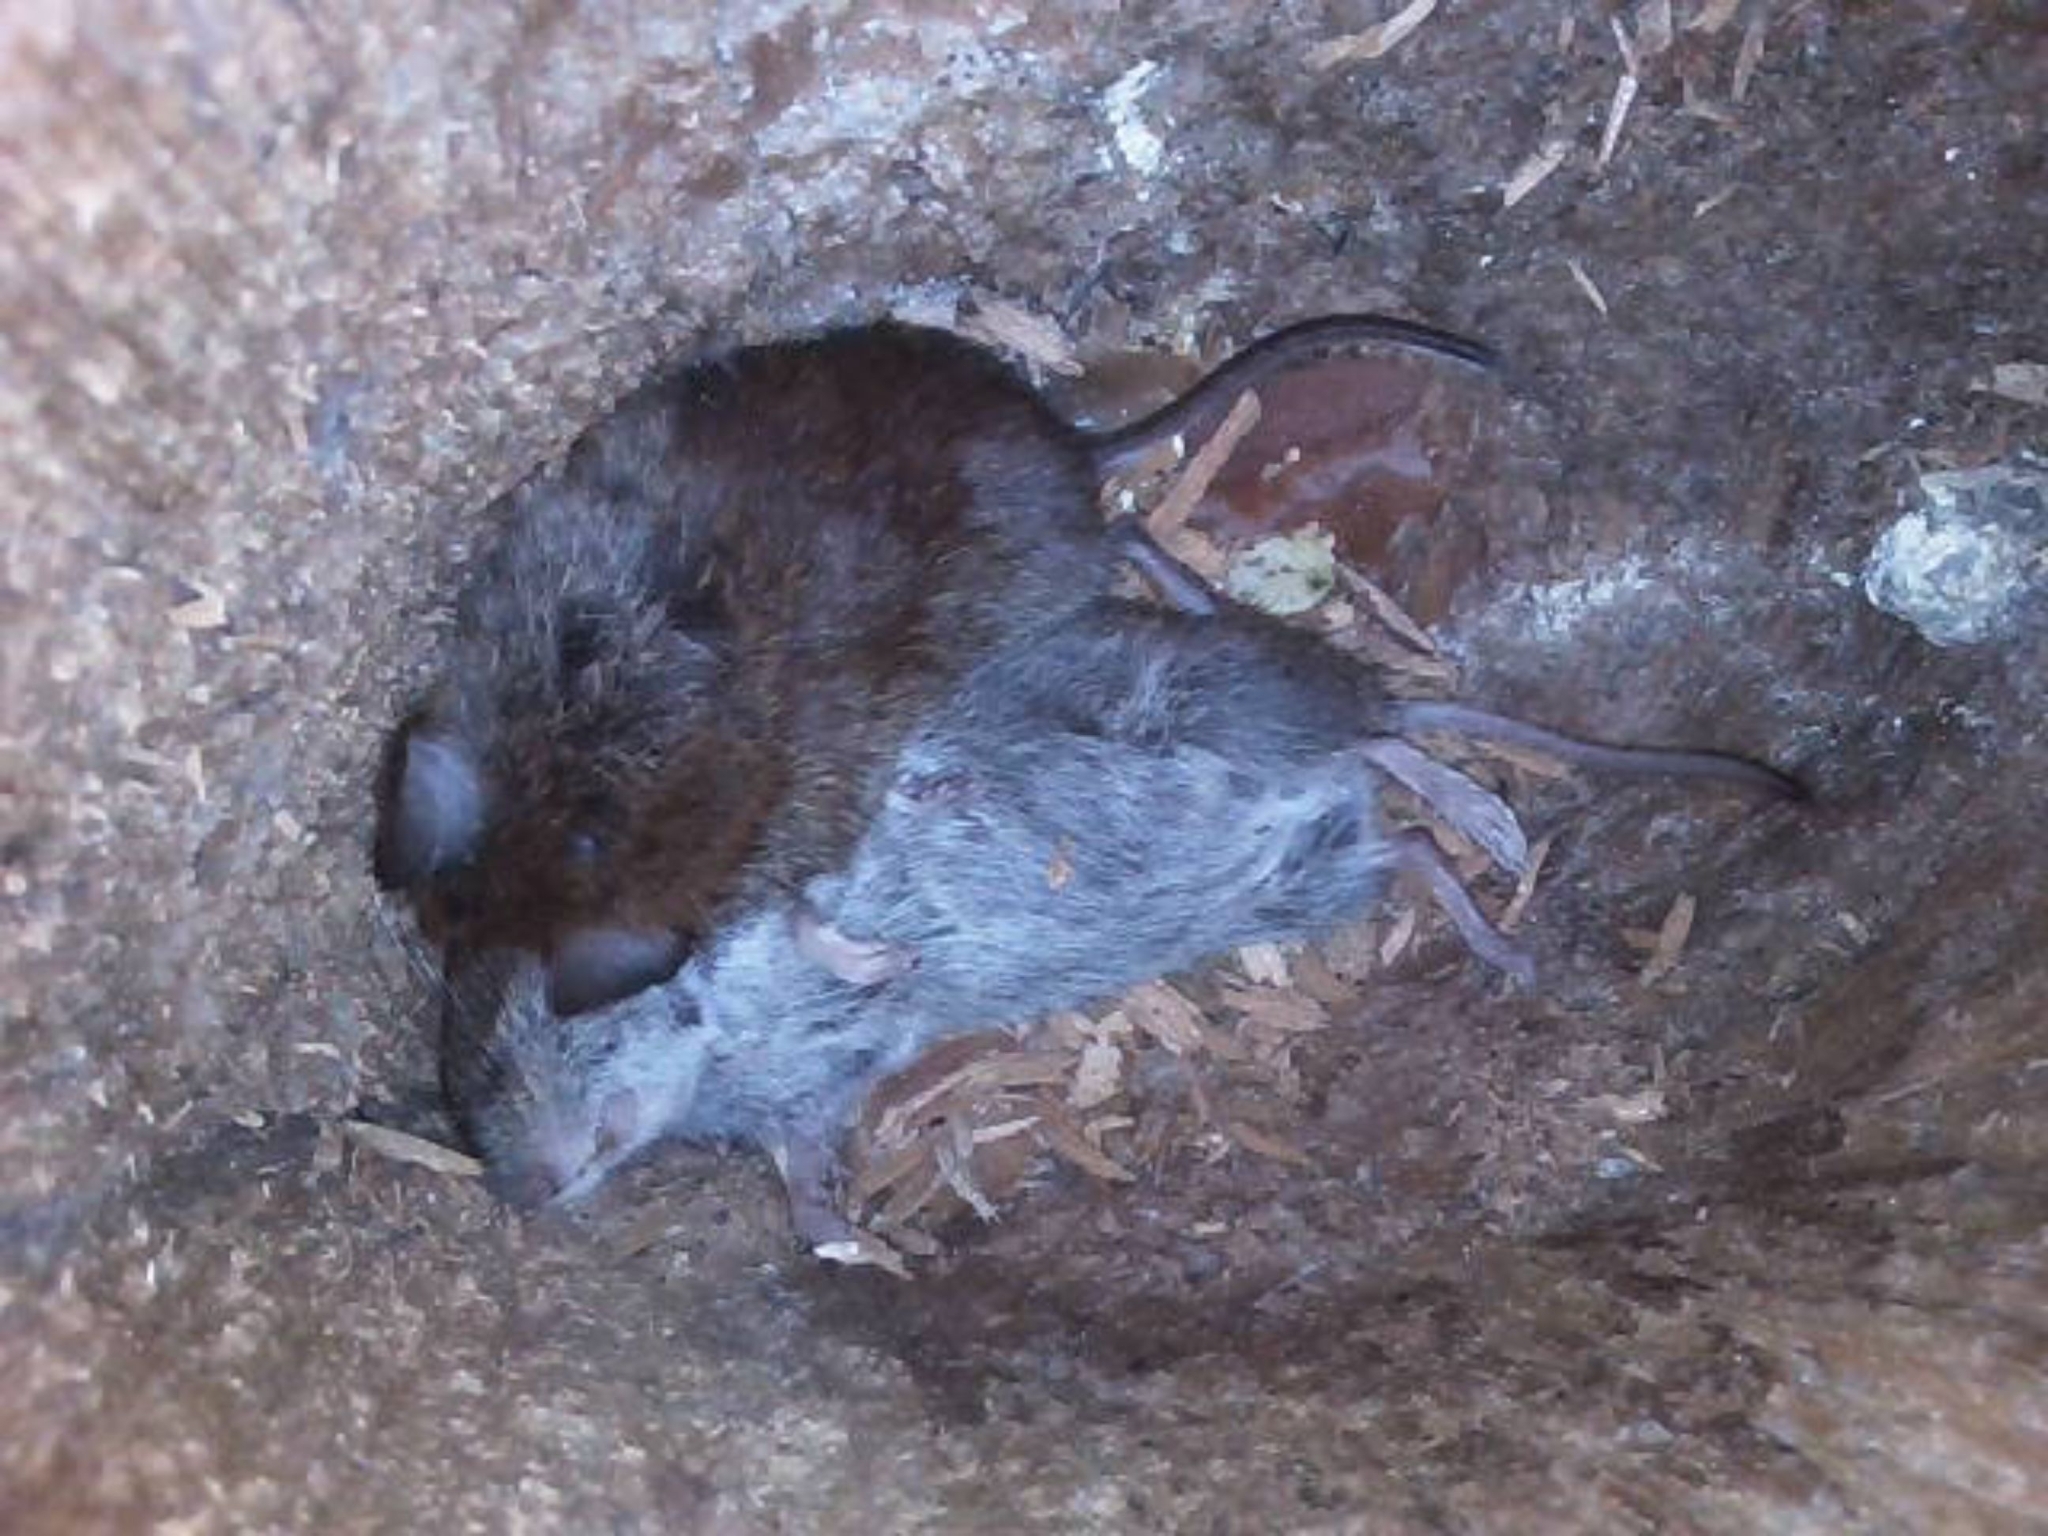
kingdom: Animalia
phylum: Chordata
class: Mammalia
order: Rodentia
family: Cricetidae
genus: Myodes
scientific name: Myodes glareolus
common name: Bank vole
